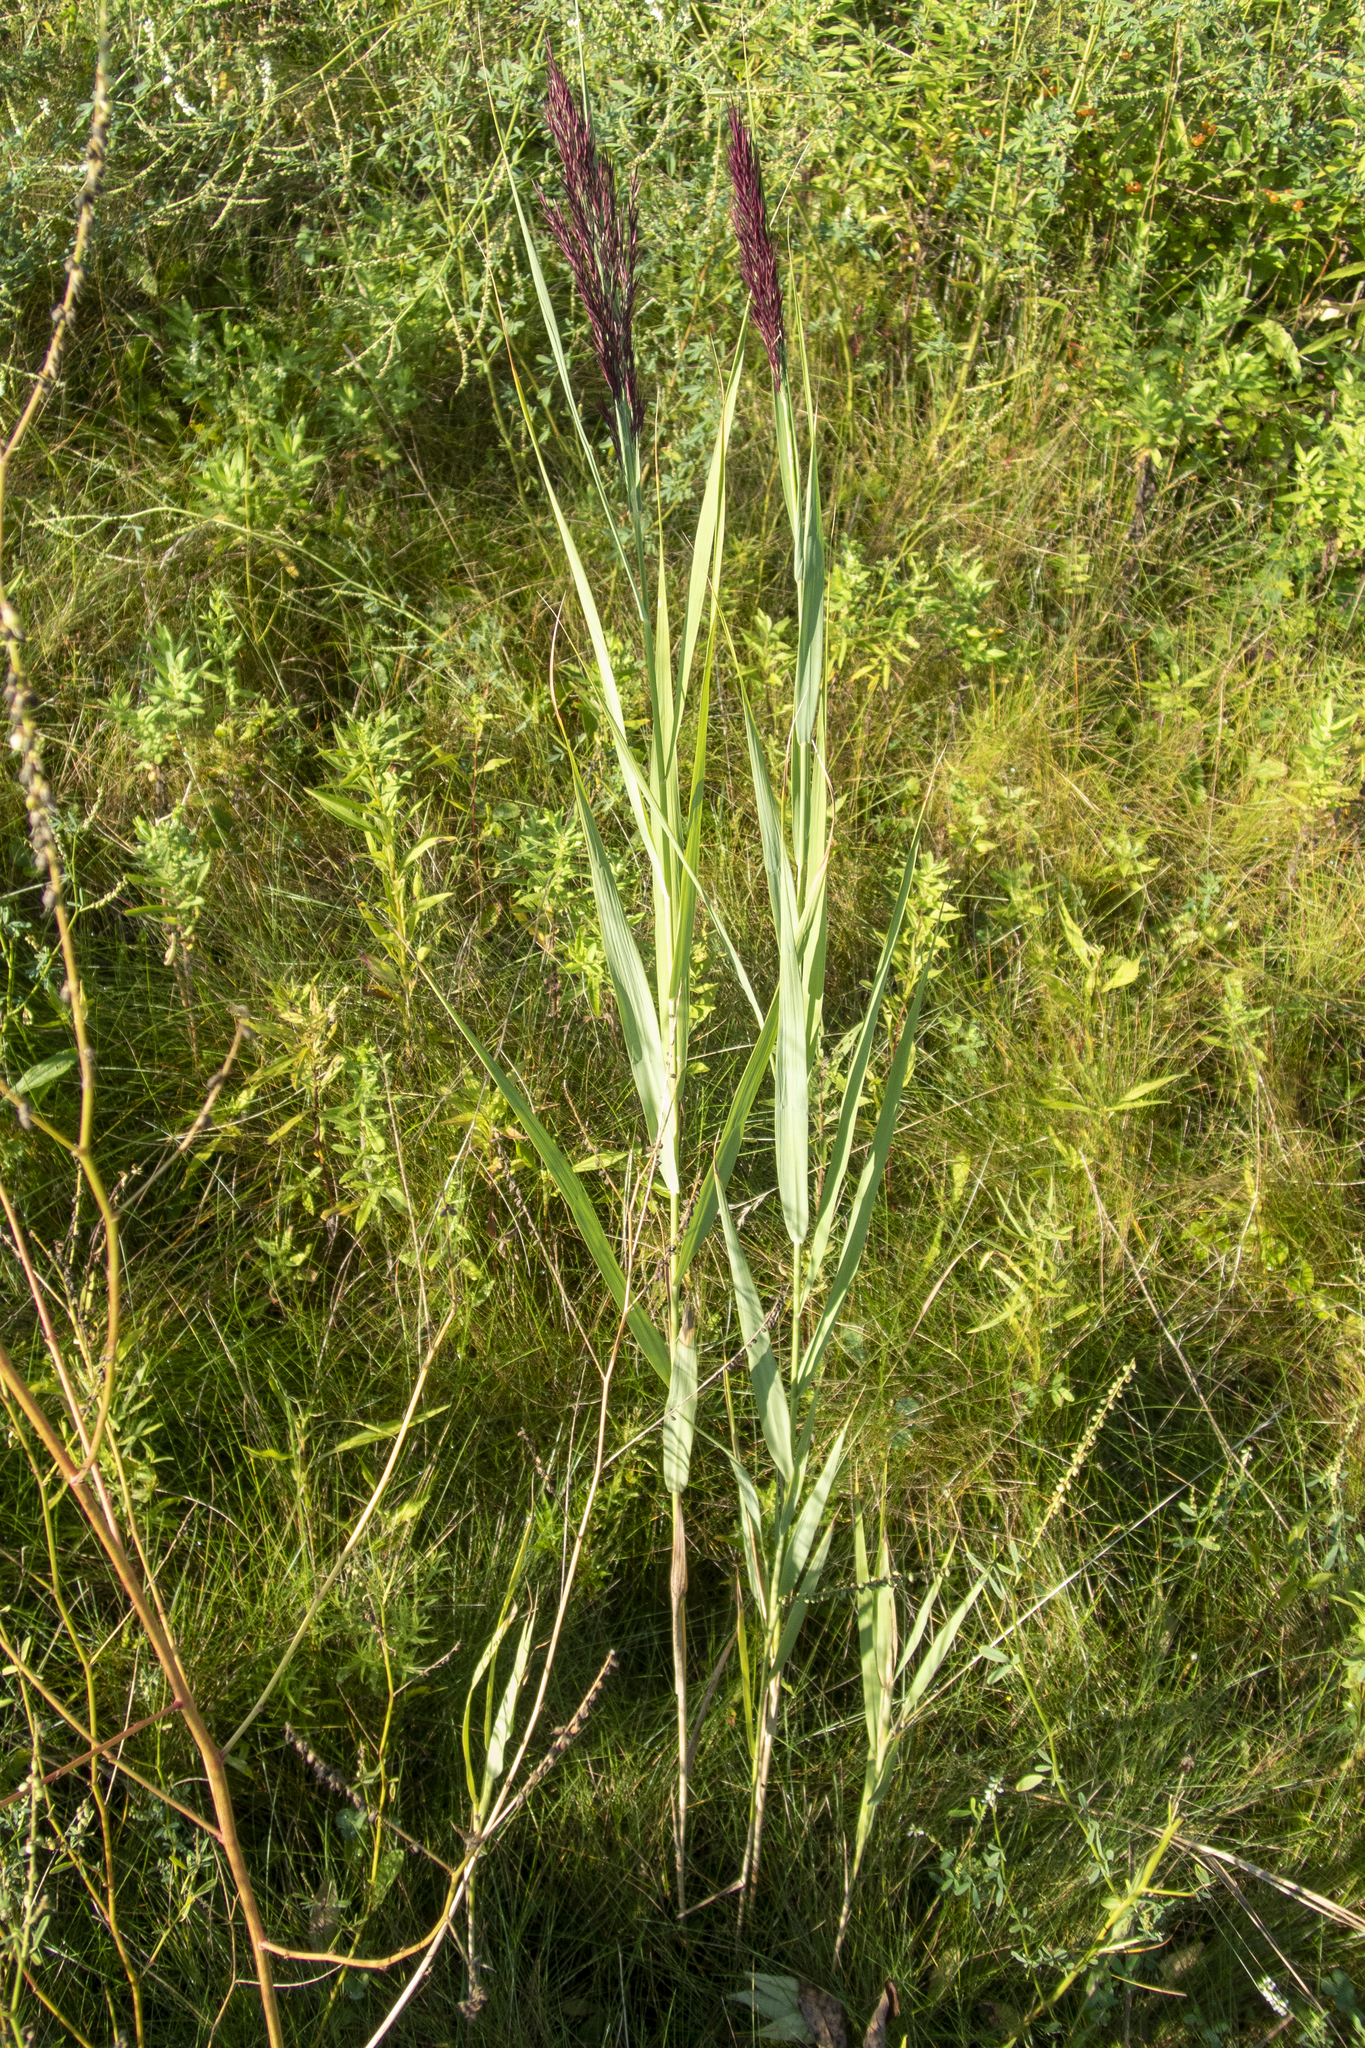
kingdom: Plantae
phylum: Tracheophyta
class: Liliopsida
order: Poales
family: Poaceae
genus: Phragmites
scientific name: Phragmites australis
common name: Common reed
